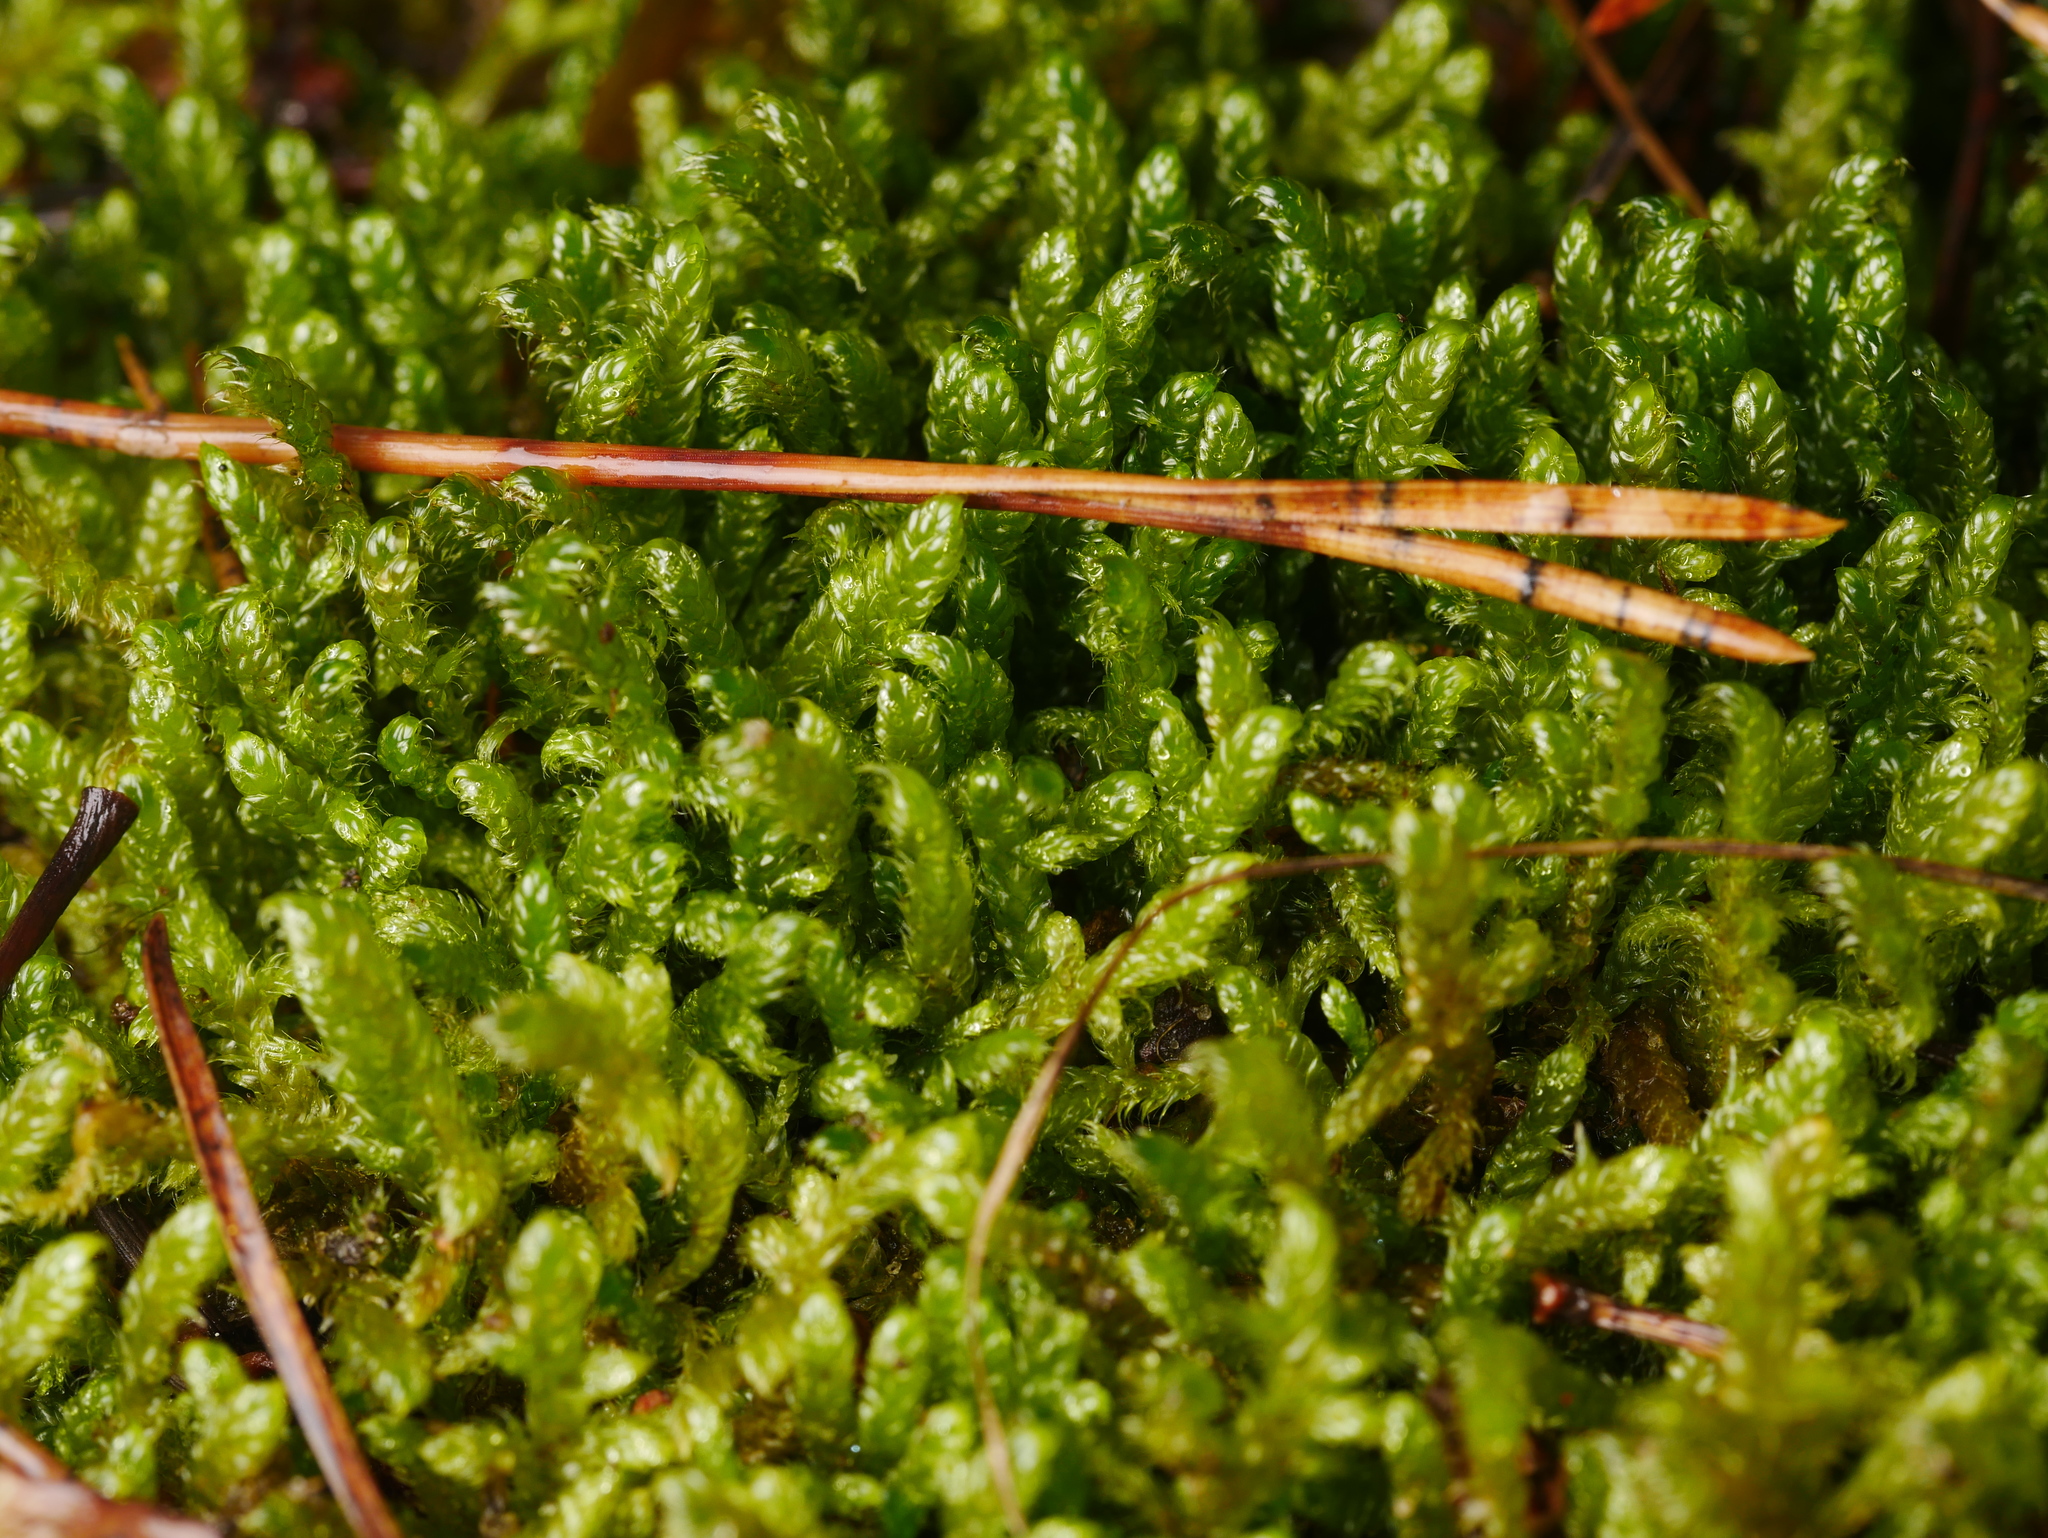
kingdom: Plantae
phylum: Bryophyta
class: Bryopsida
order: Hypnales
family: Hypnaceae
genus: Hypnum
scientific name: Hypnum cupressiforme
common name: Cypress-leaved plait-moss
